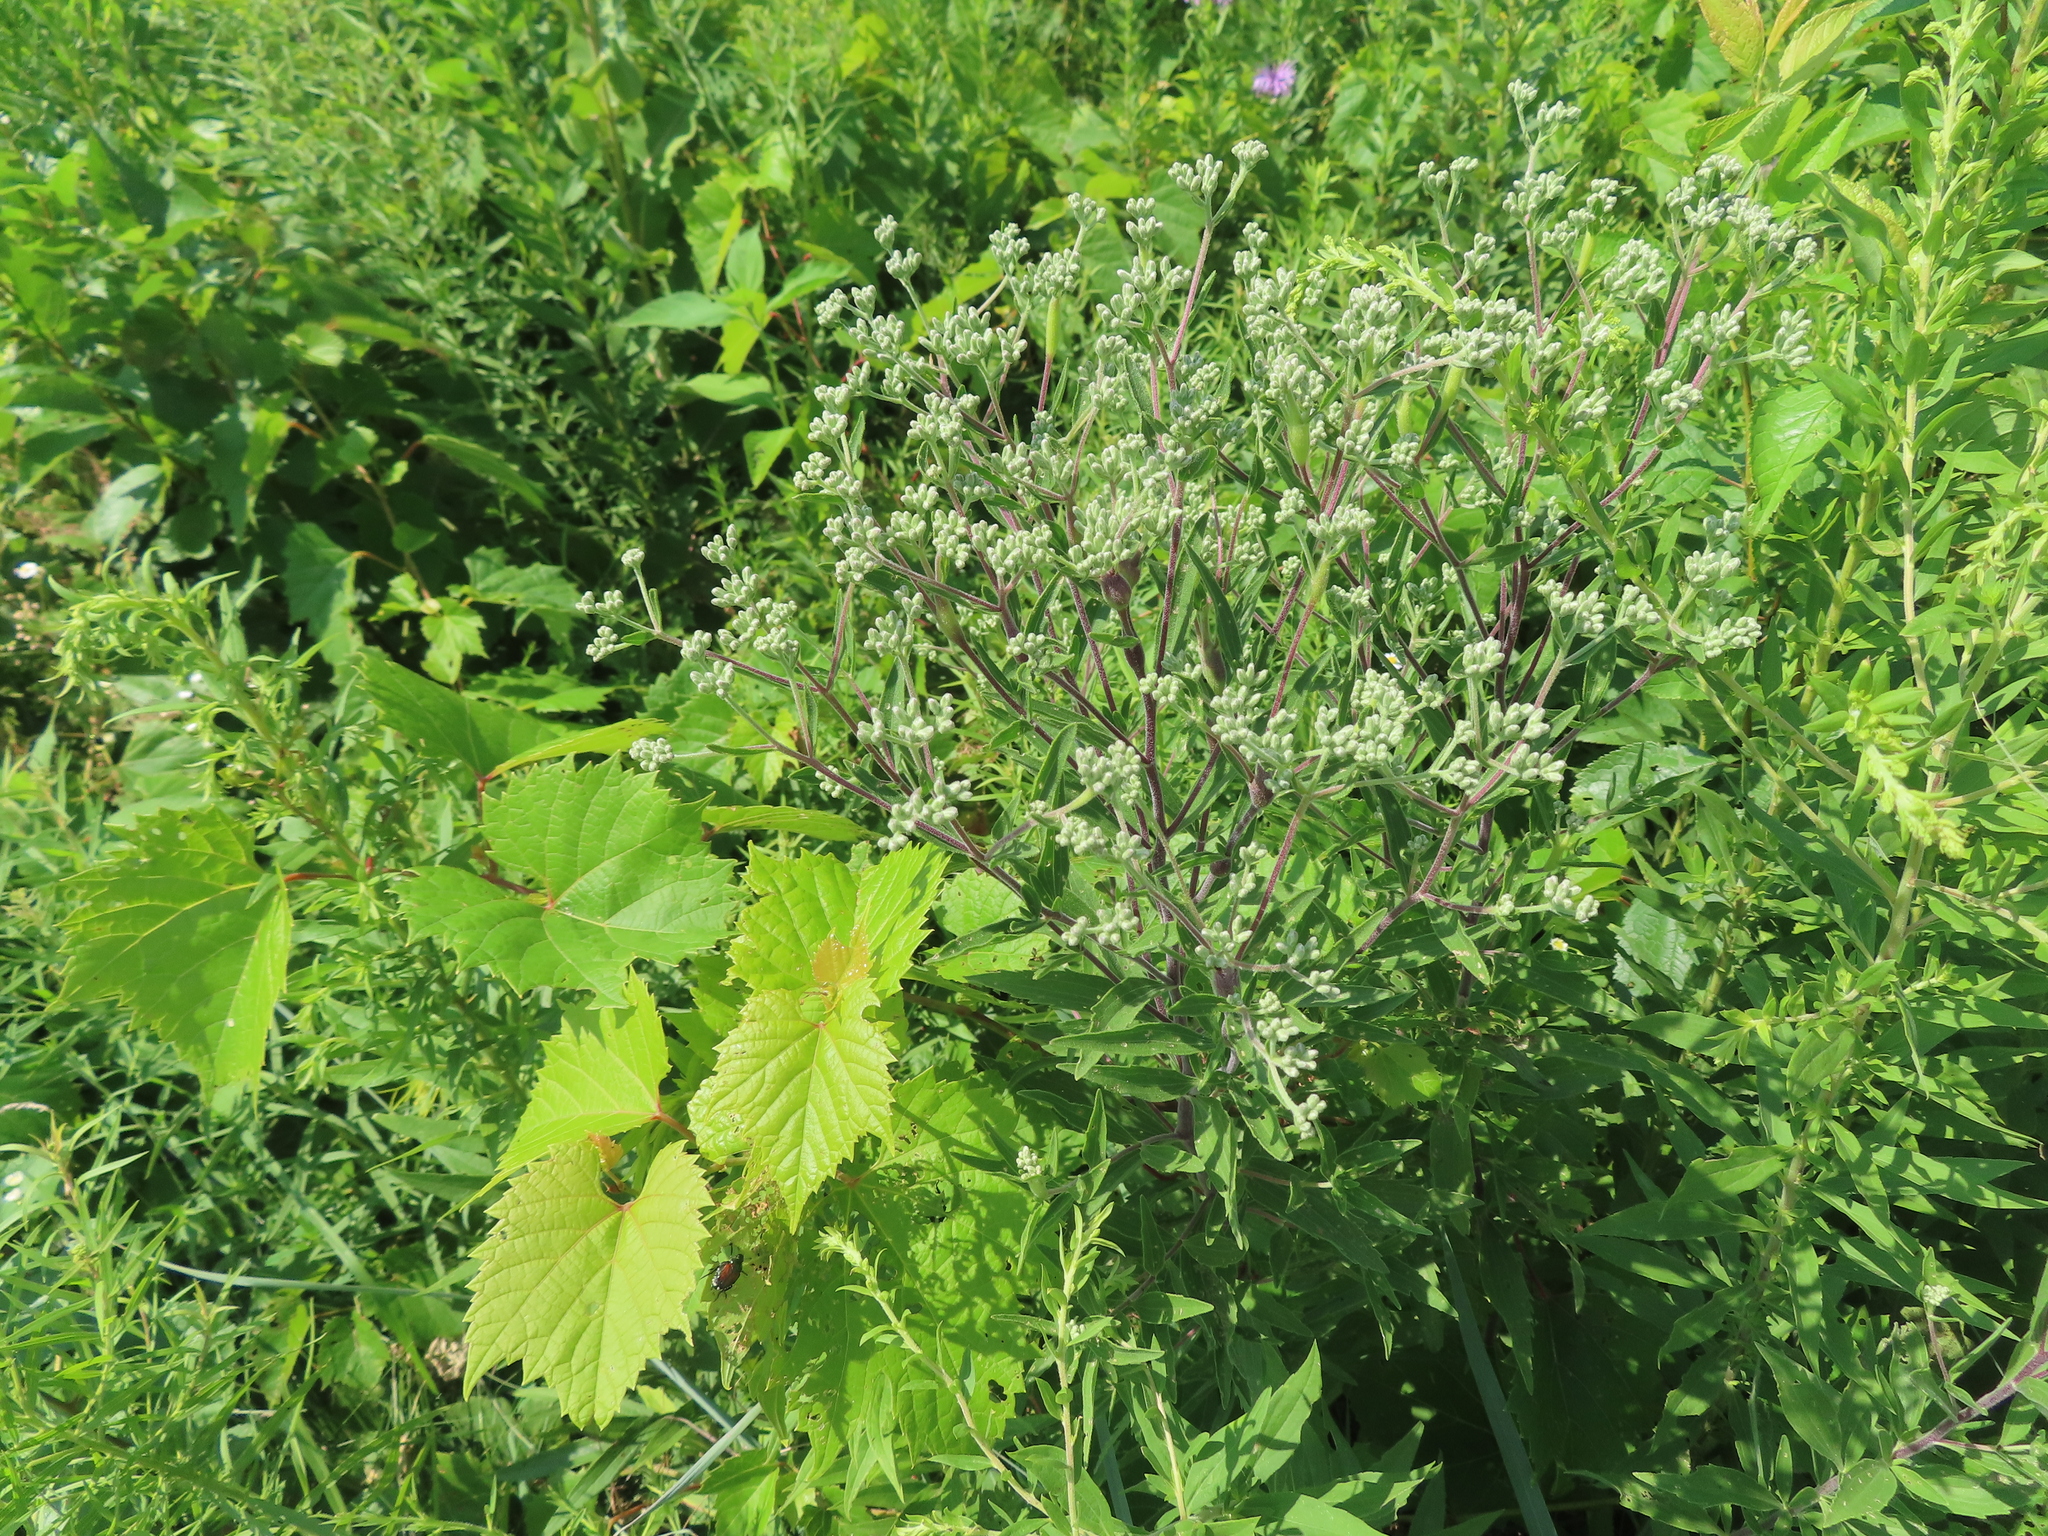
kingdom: Plantae
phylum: Tracheophyta
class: Magnoliopsida
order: Asterales
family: Asteraceae
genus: Eupatorium
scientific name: Eupatorium altissimum
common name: Tall thoroughwort
